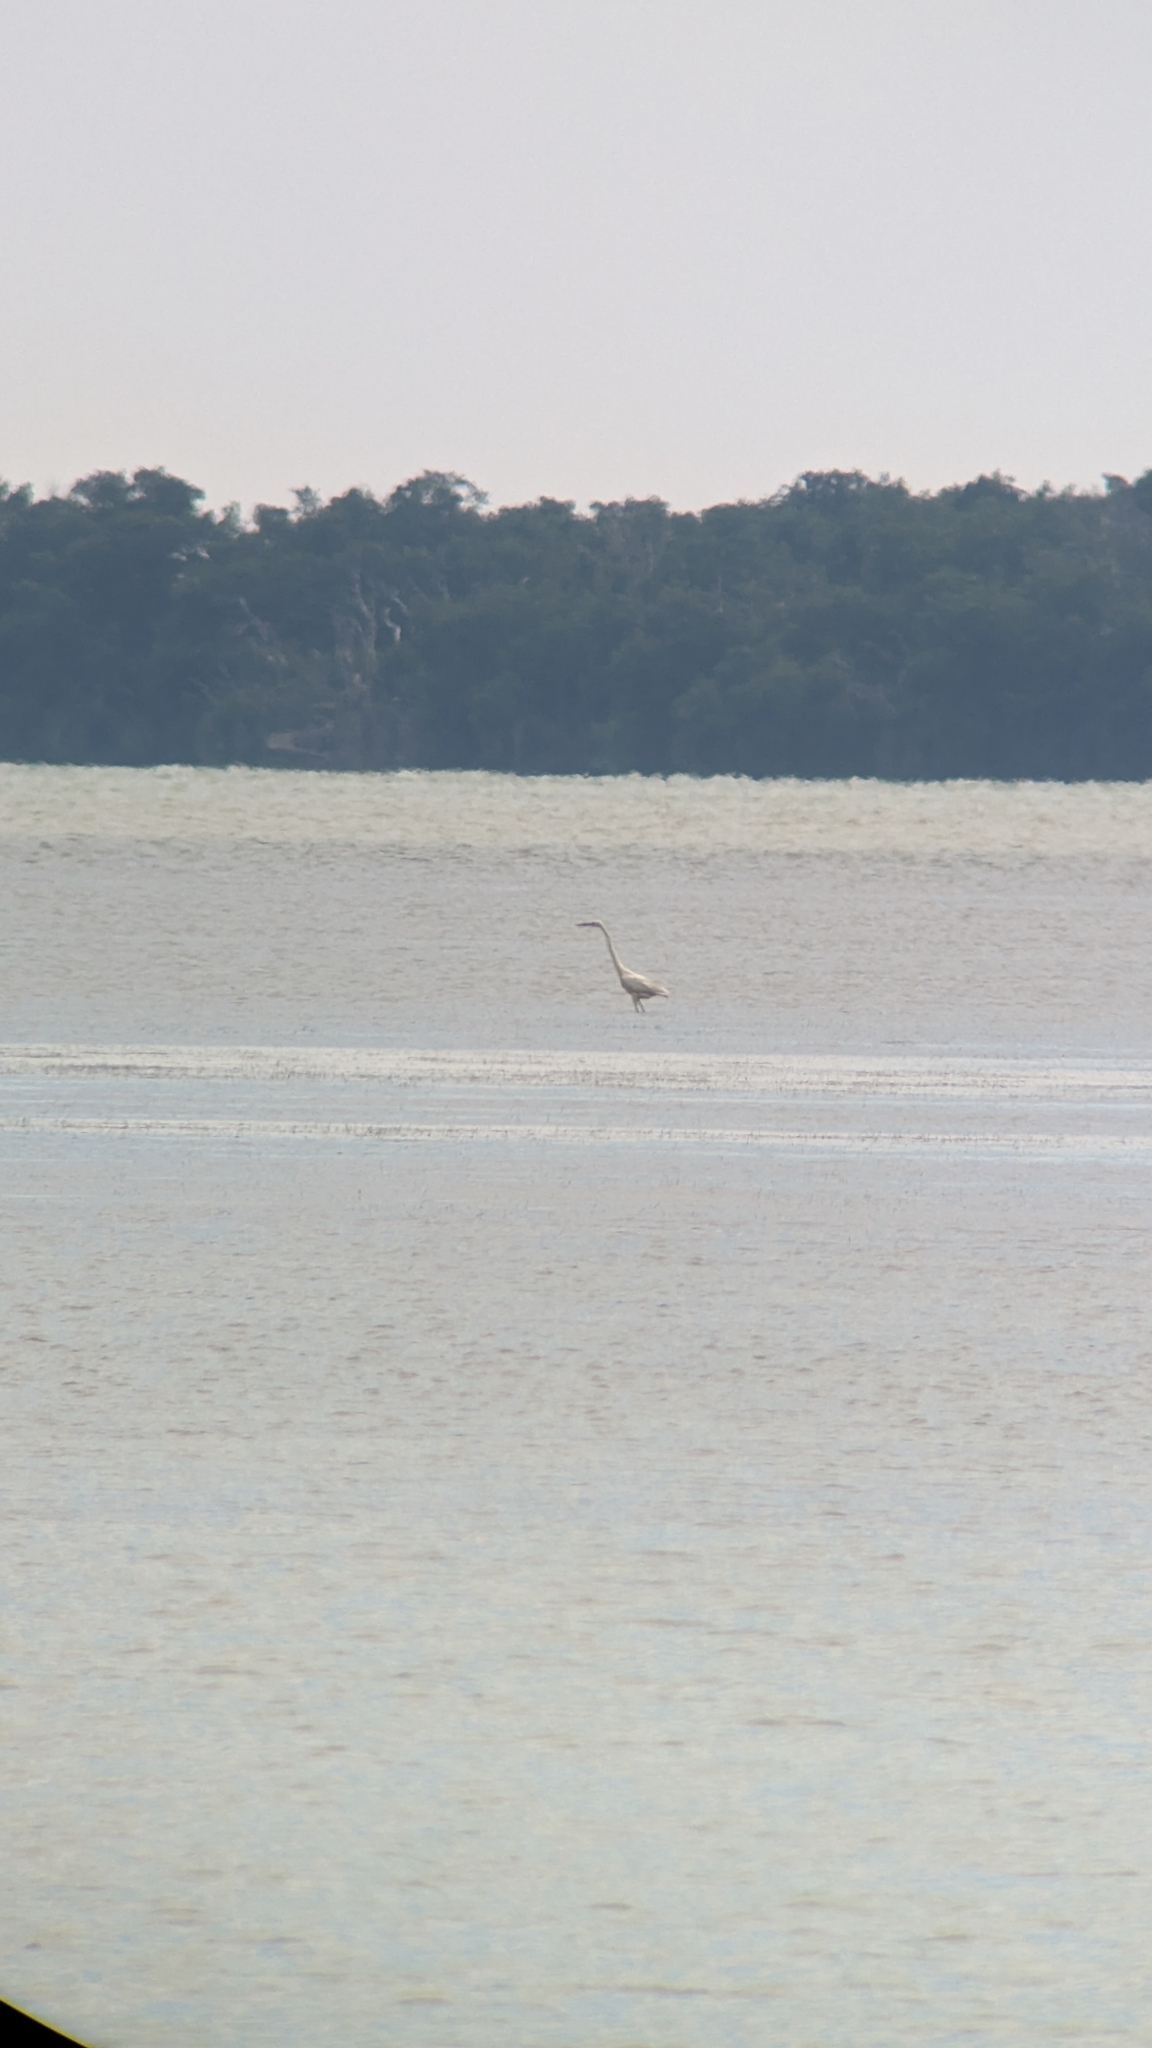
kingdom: Animalia
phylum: Chordata
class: Aves
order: Pelecaniformes
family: Ardeidae
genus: Ardea
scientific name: Ardea herodias
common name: Great blue heron
